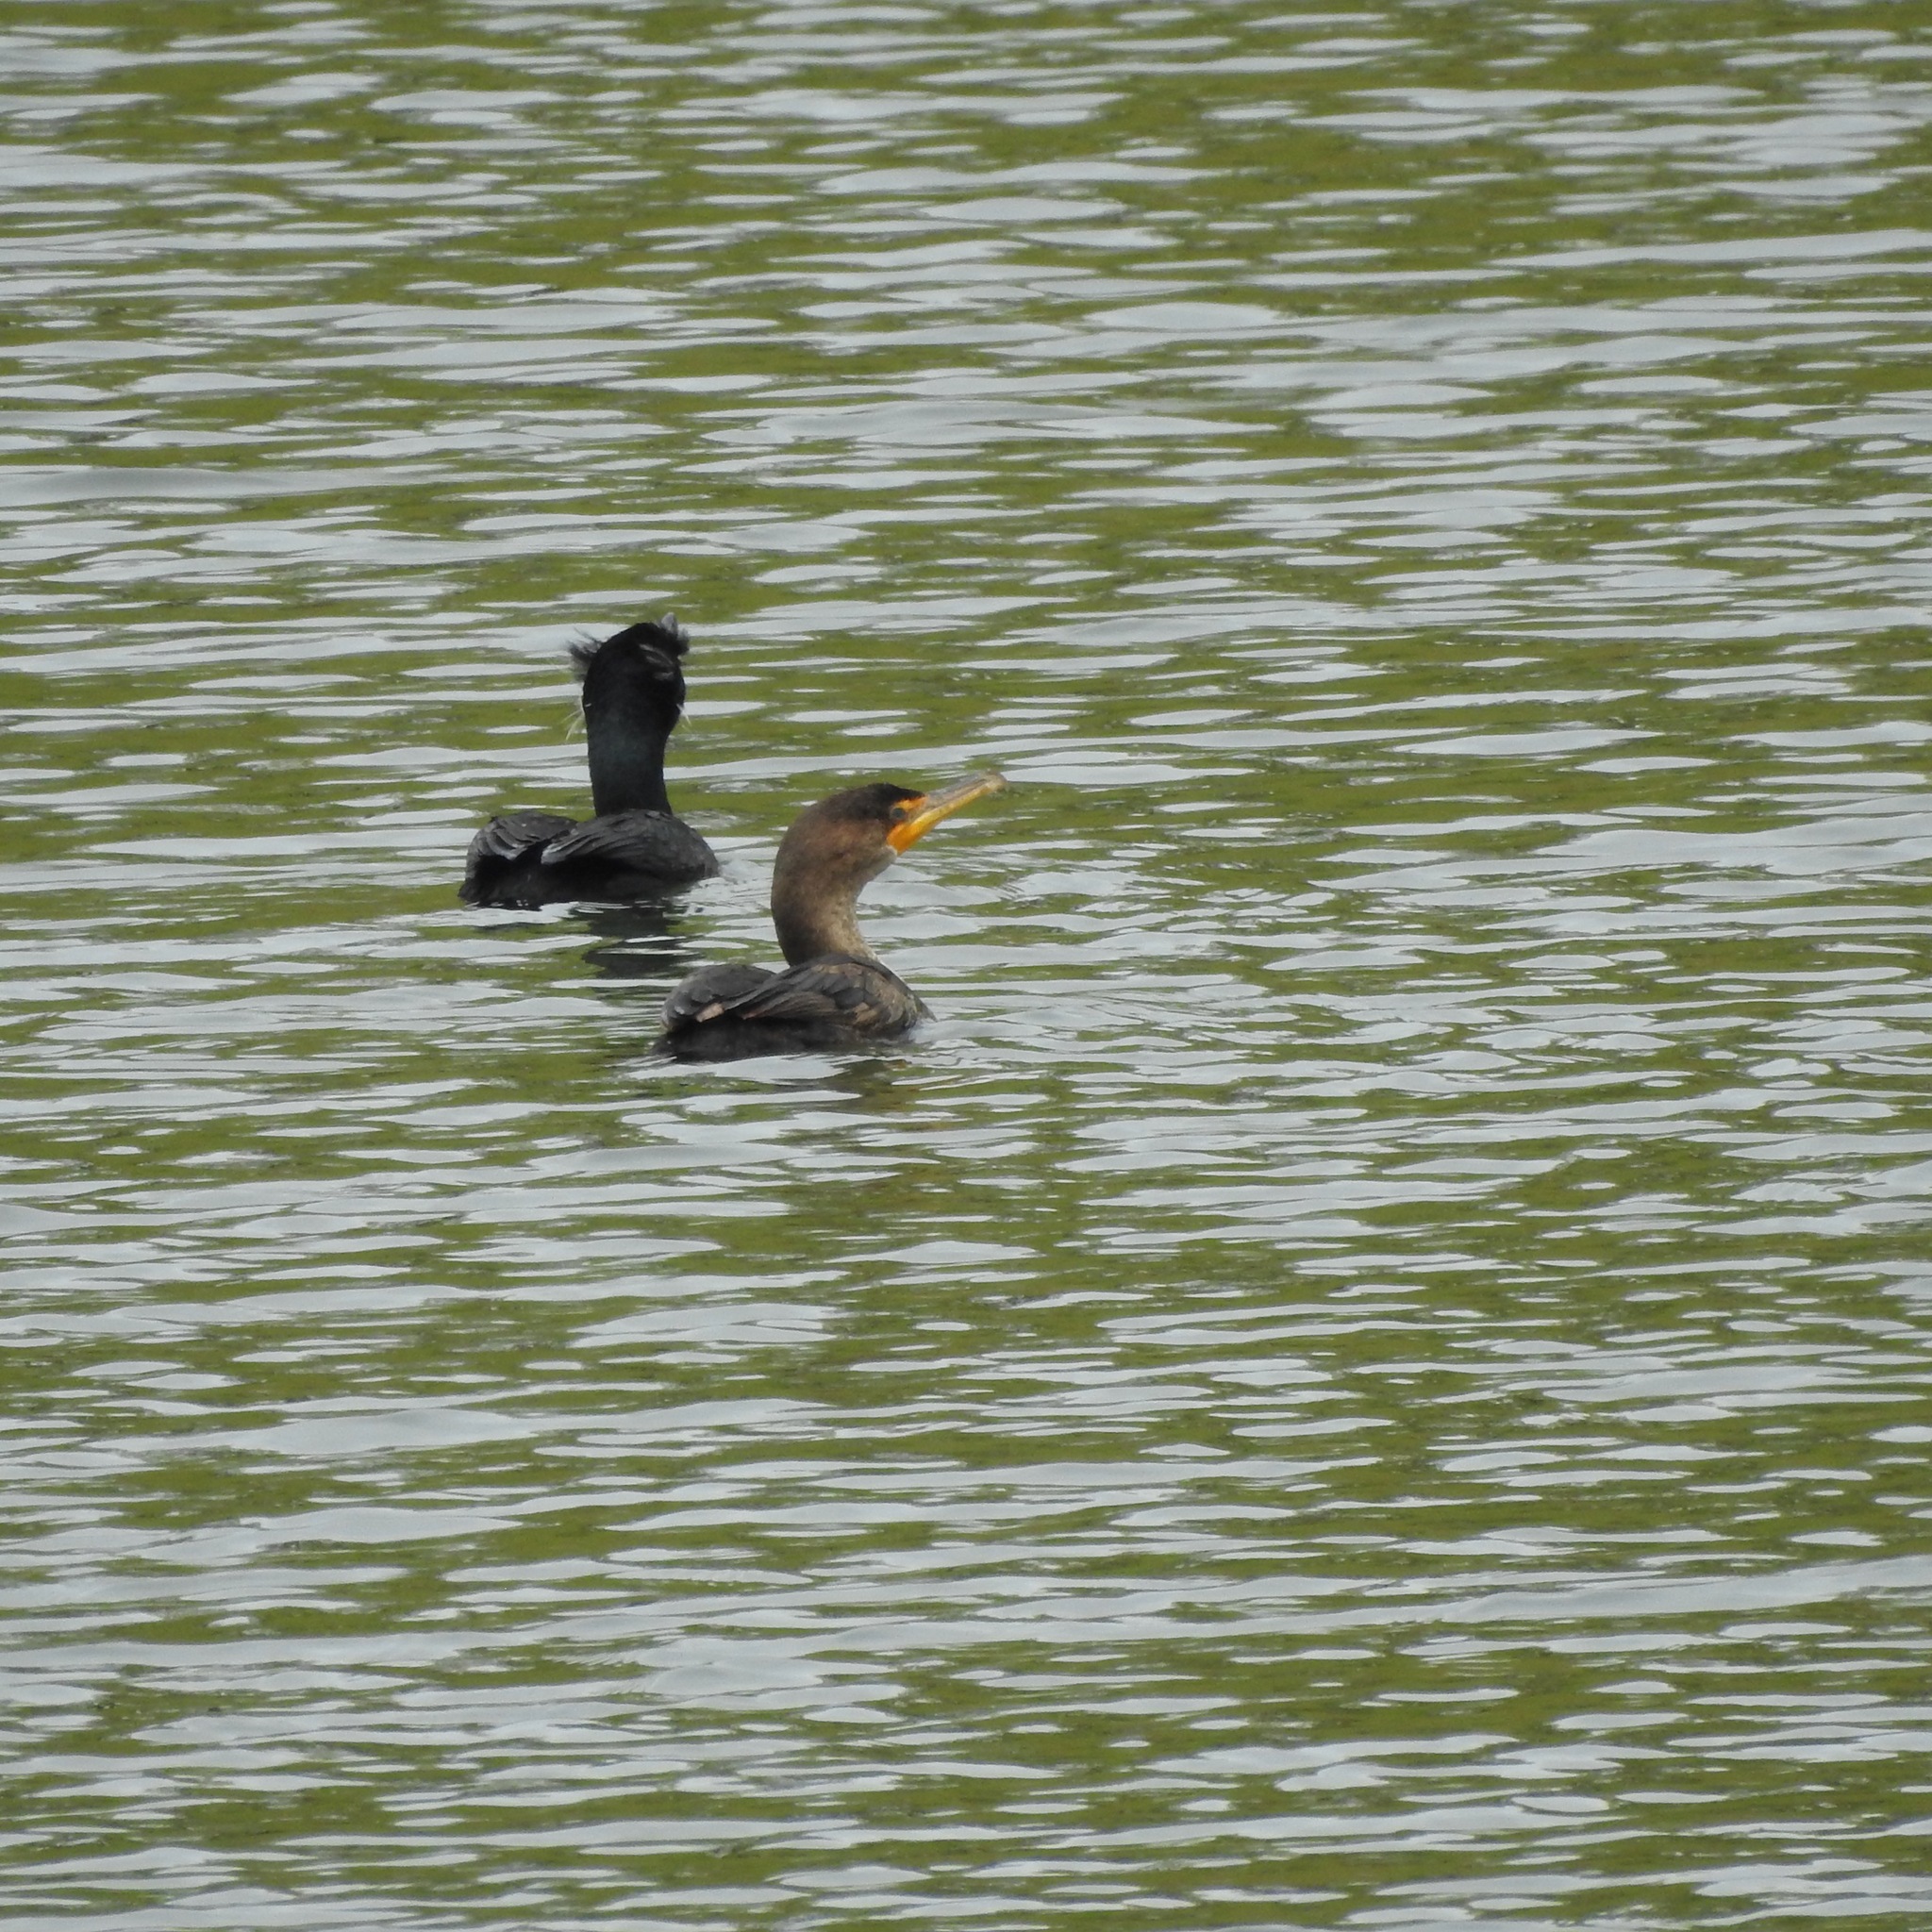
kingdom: Animalia
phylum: Chordata
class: Aves
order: Suliformes
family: Phalacrocoracidae
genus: Phalacrocorax
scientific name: Phalacrocorax auritus
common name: Double-crested cormorant
